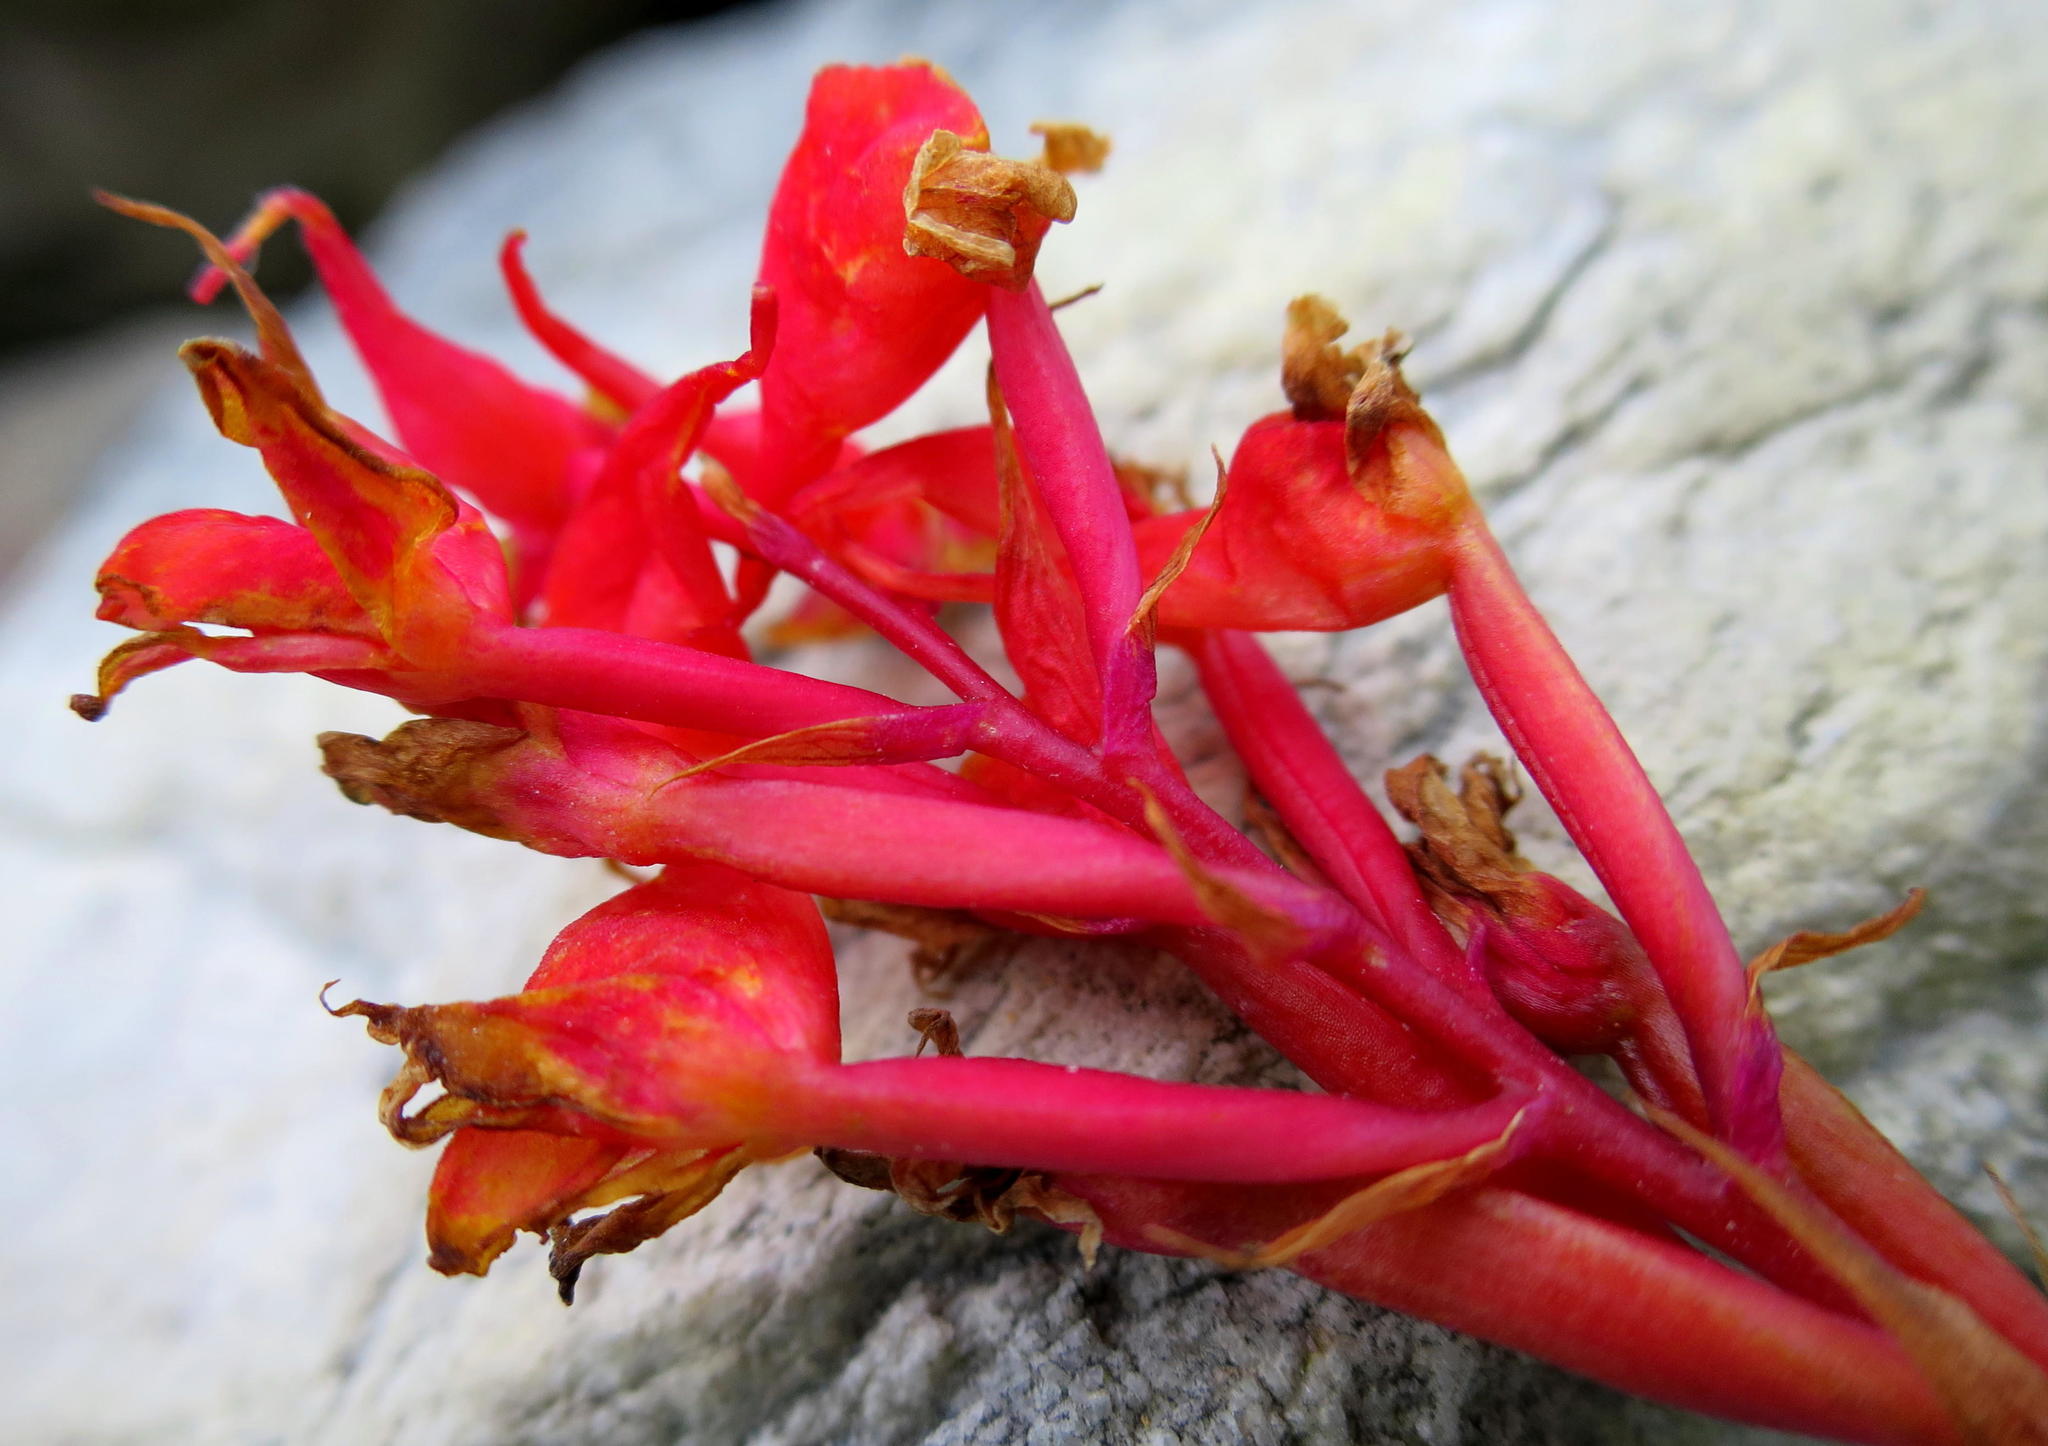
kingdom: Plantae
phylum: Tracheophyta
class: Liliopsida
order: Asparagales
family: Orchidaceae
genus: Disa
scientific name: Disa ferruginea
